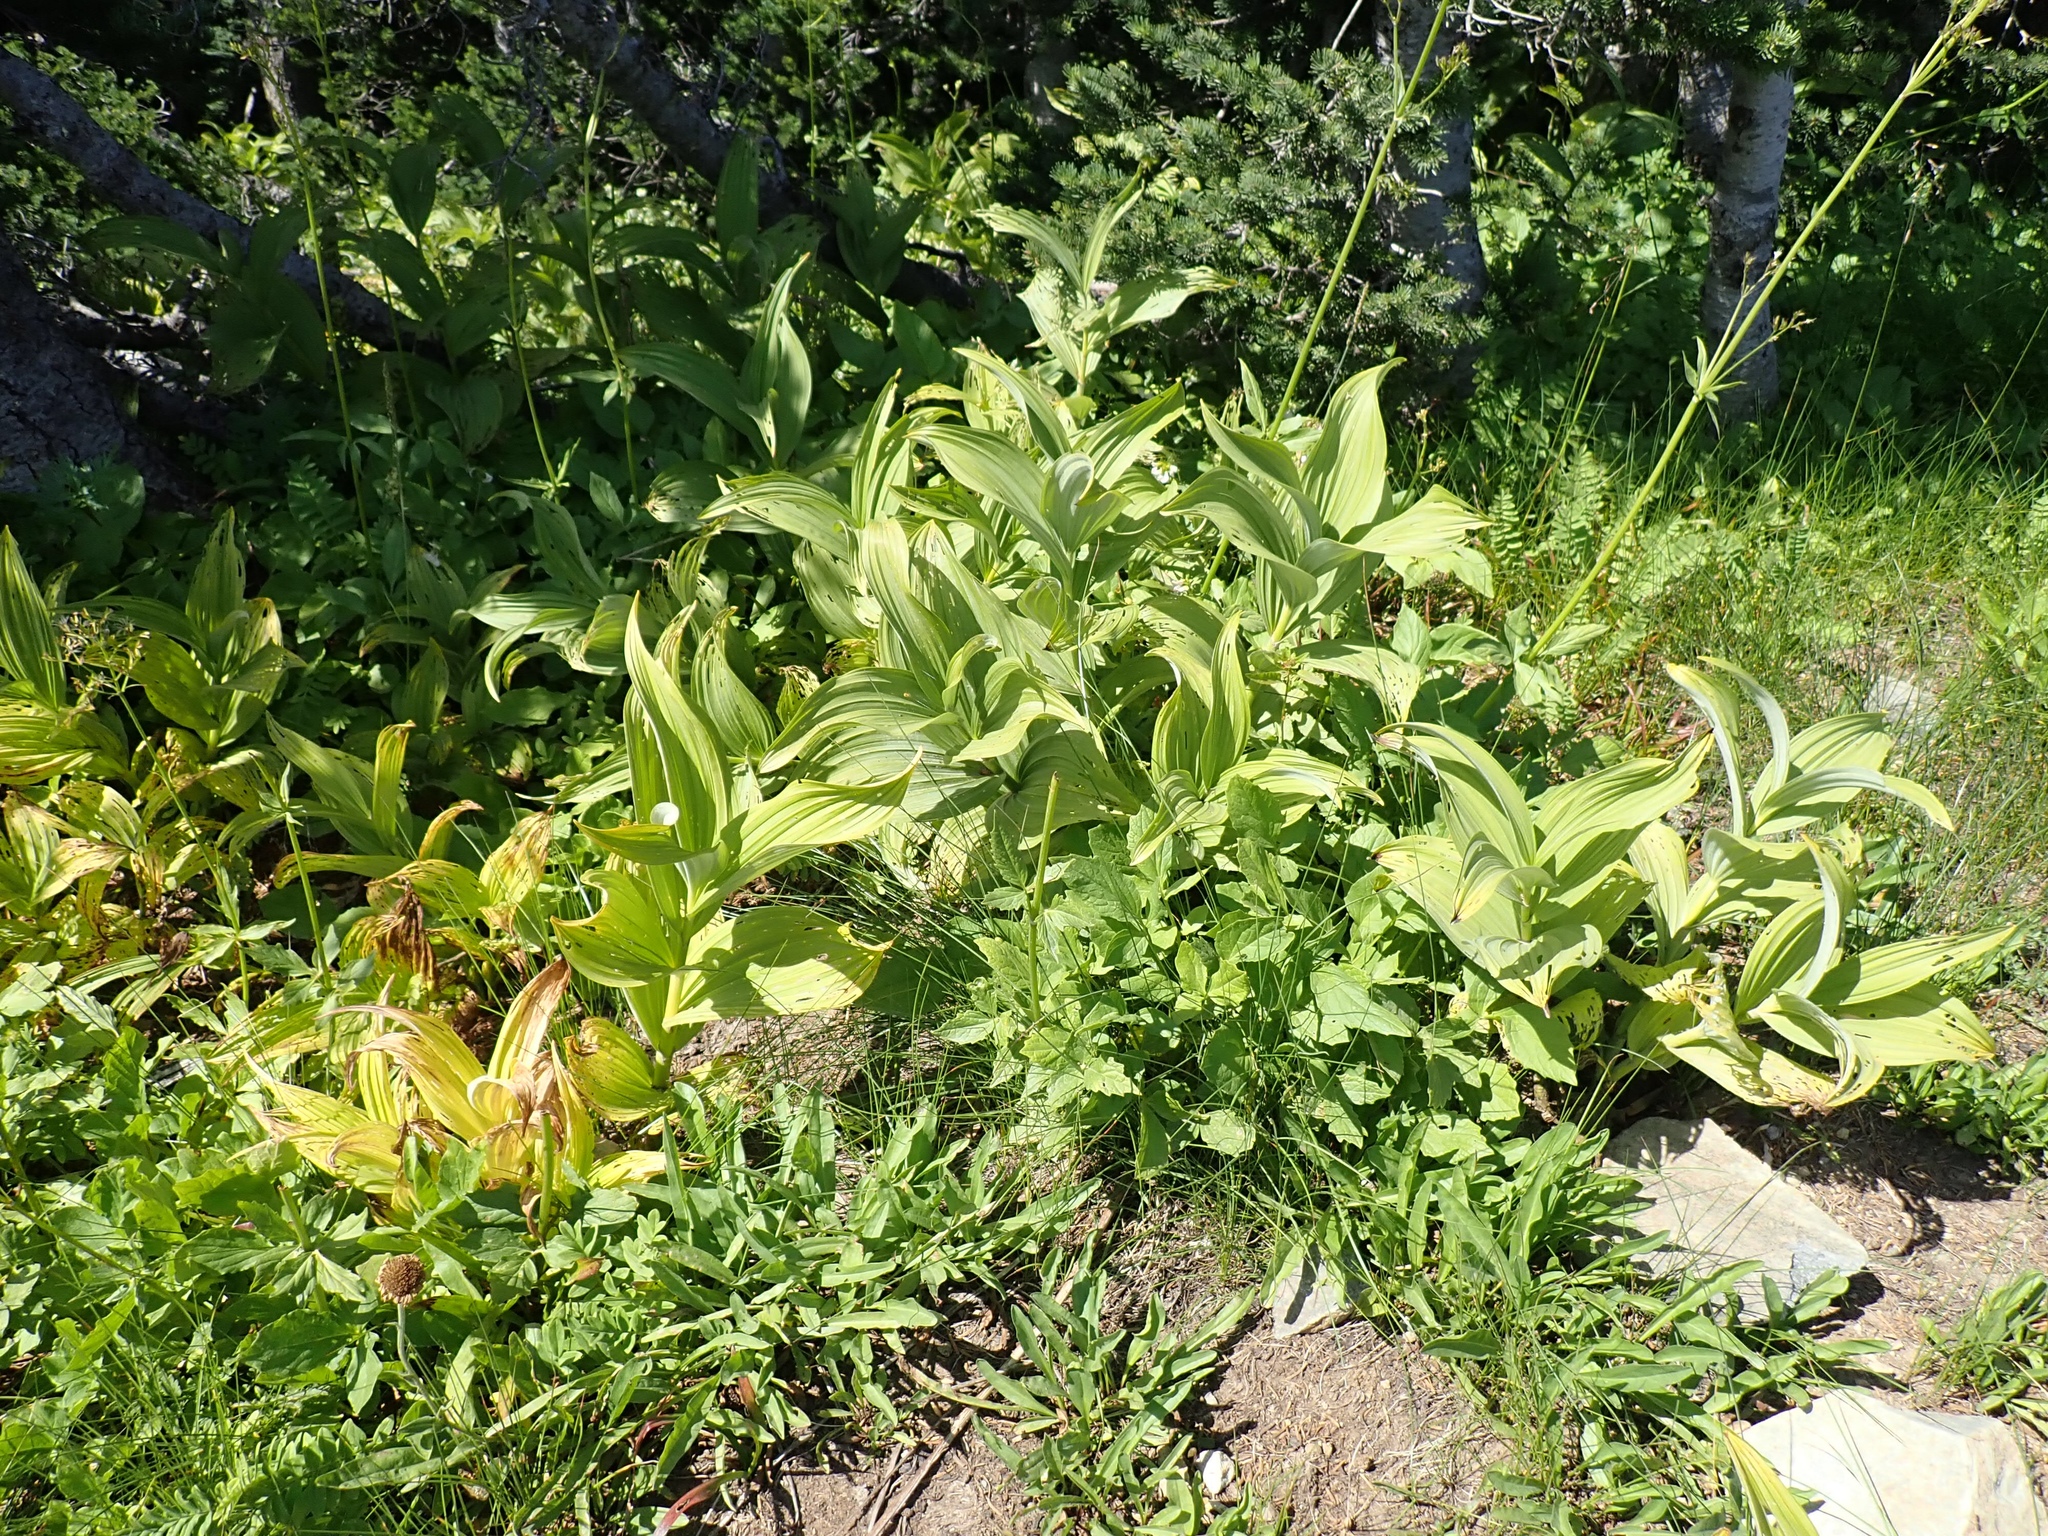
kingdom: Plantae
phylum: Tracheophyta
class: Liliopsida
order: Liliales
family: Melanthiaceae
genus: Veratrum
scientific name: Veratrum viride
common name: American false hellebore
